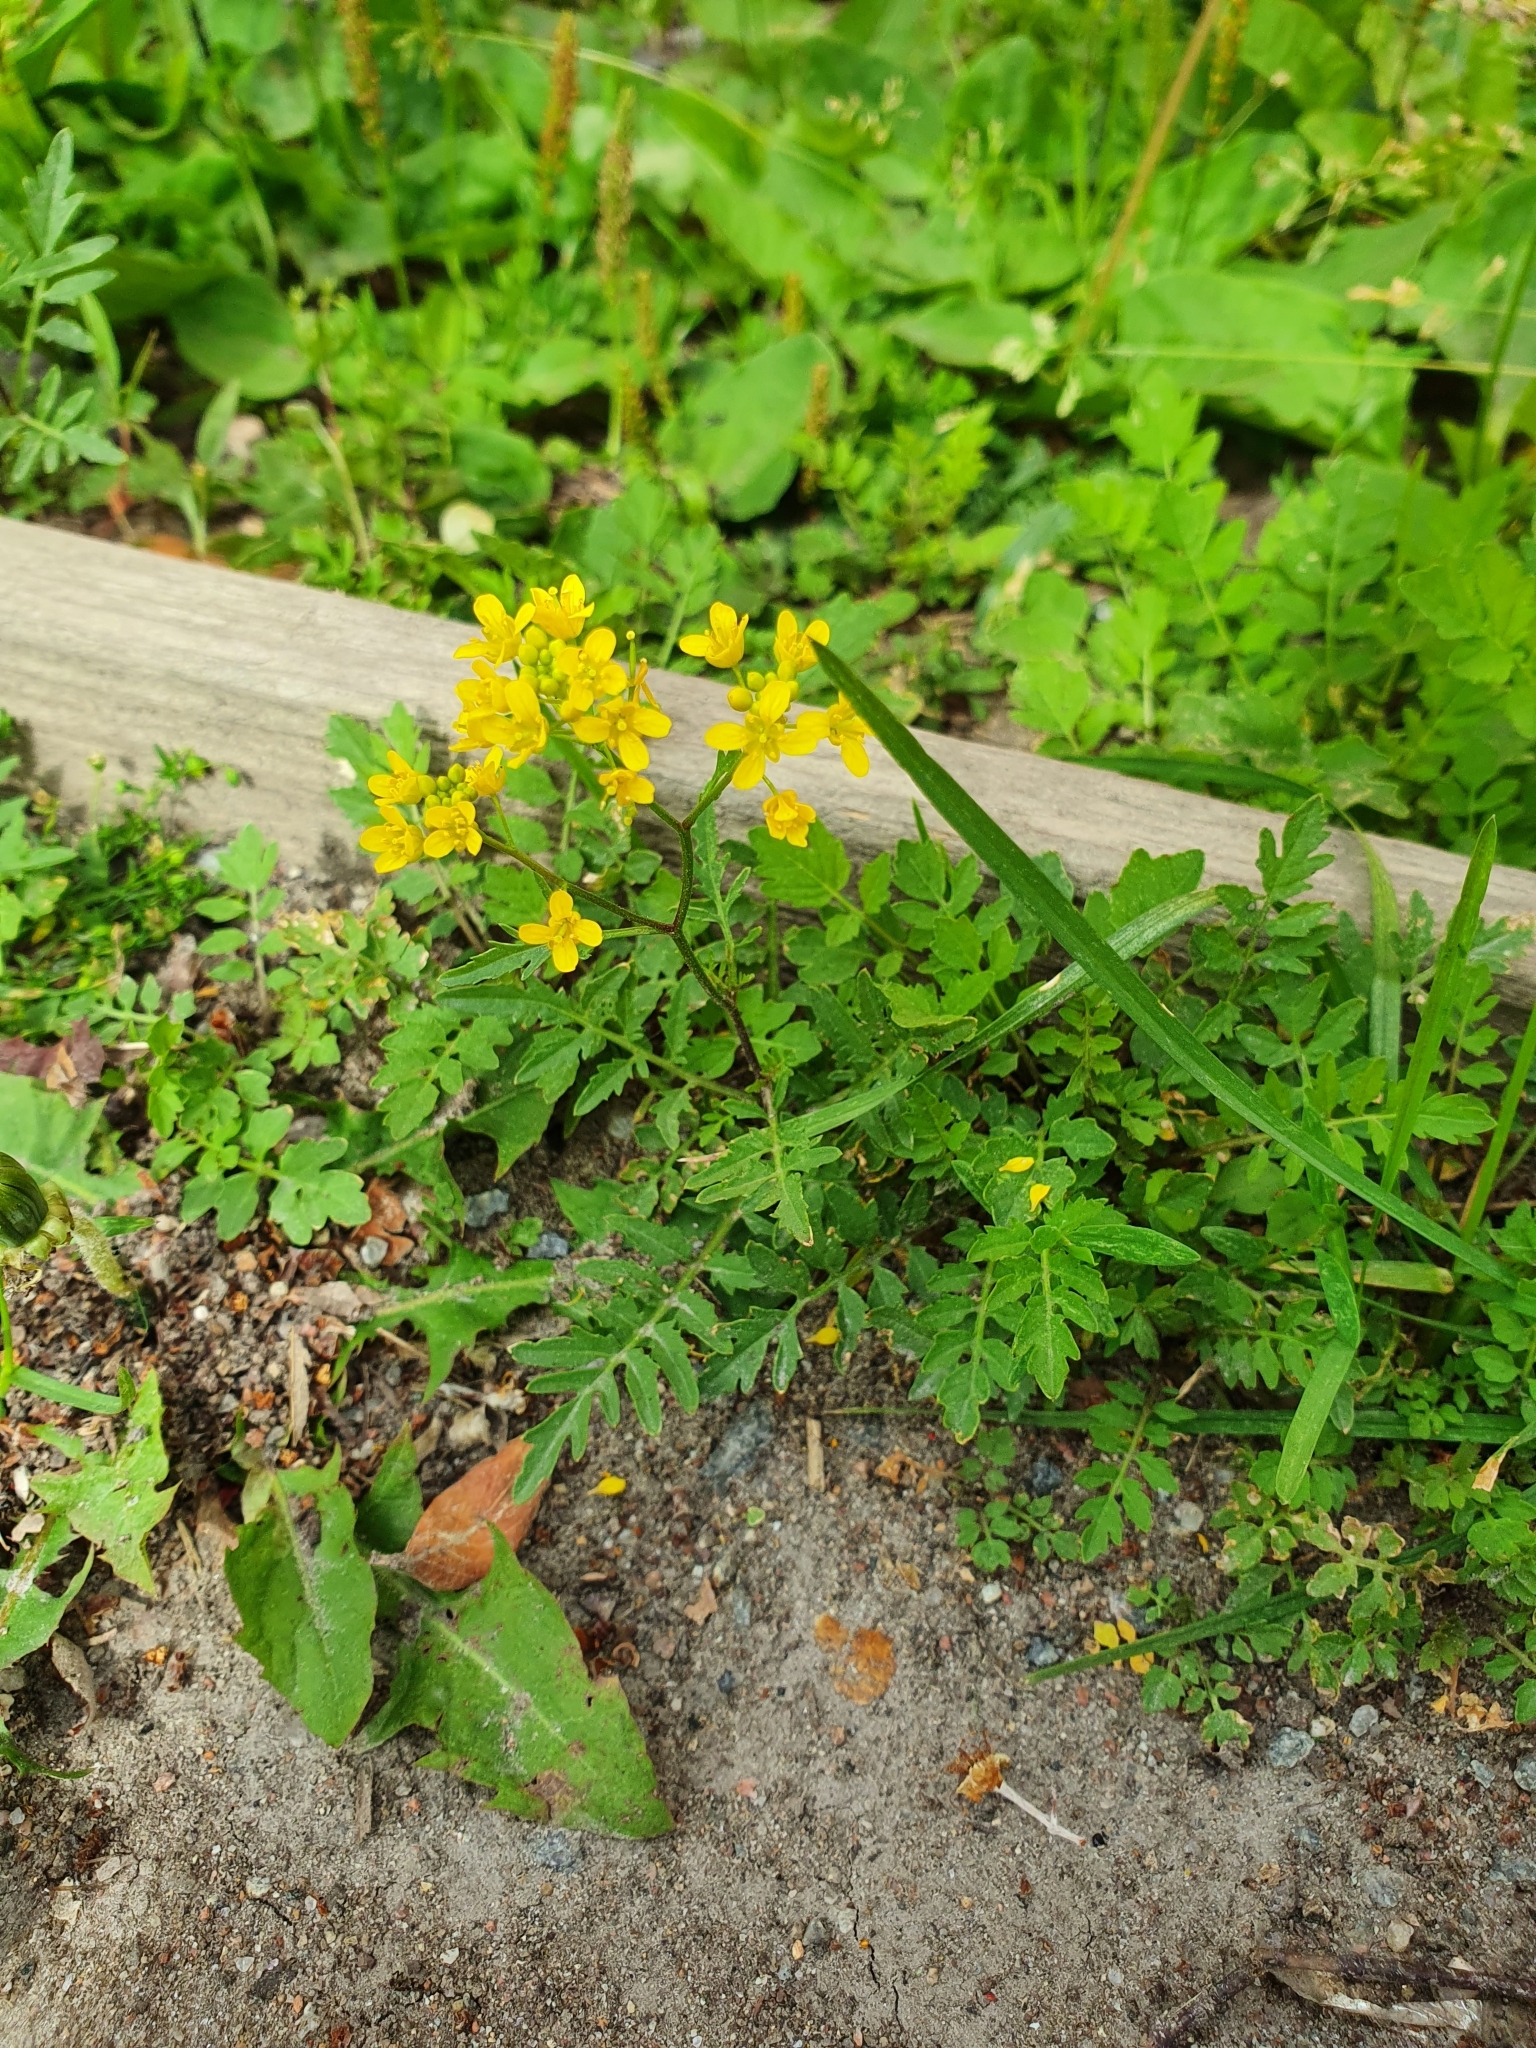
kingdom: Plantae
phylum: Tracheophyta
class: Magnoliopsida
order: Brassicales
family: Brassicaceae
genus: Rorippa
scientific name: Rorippa sylvestris
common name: Creeping yellowcress
